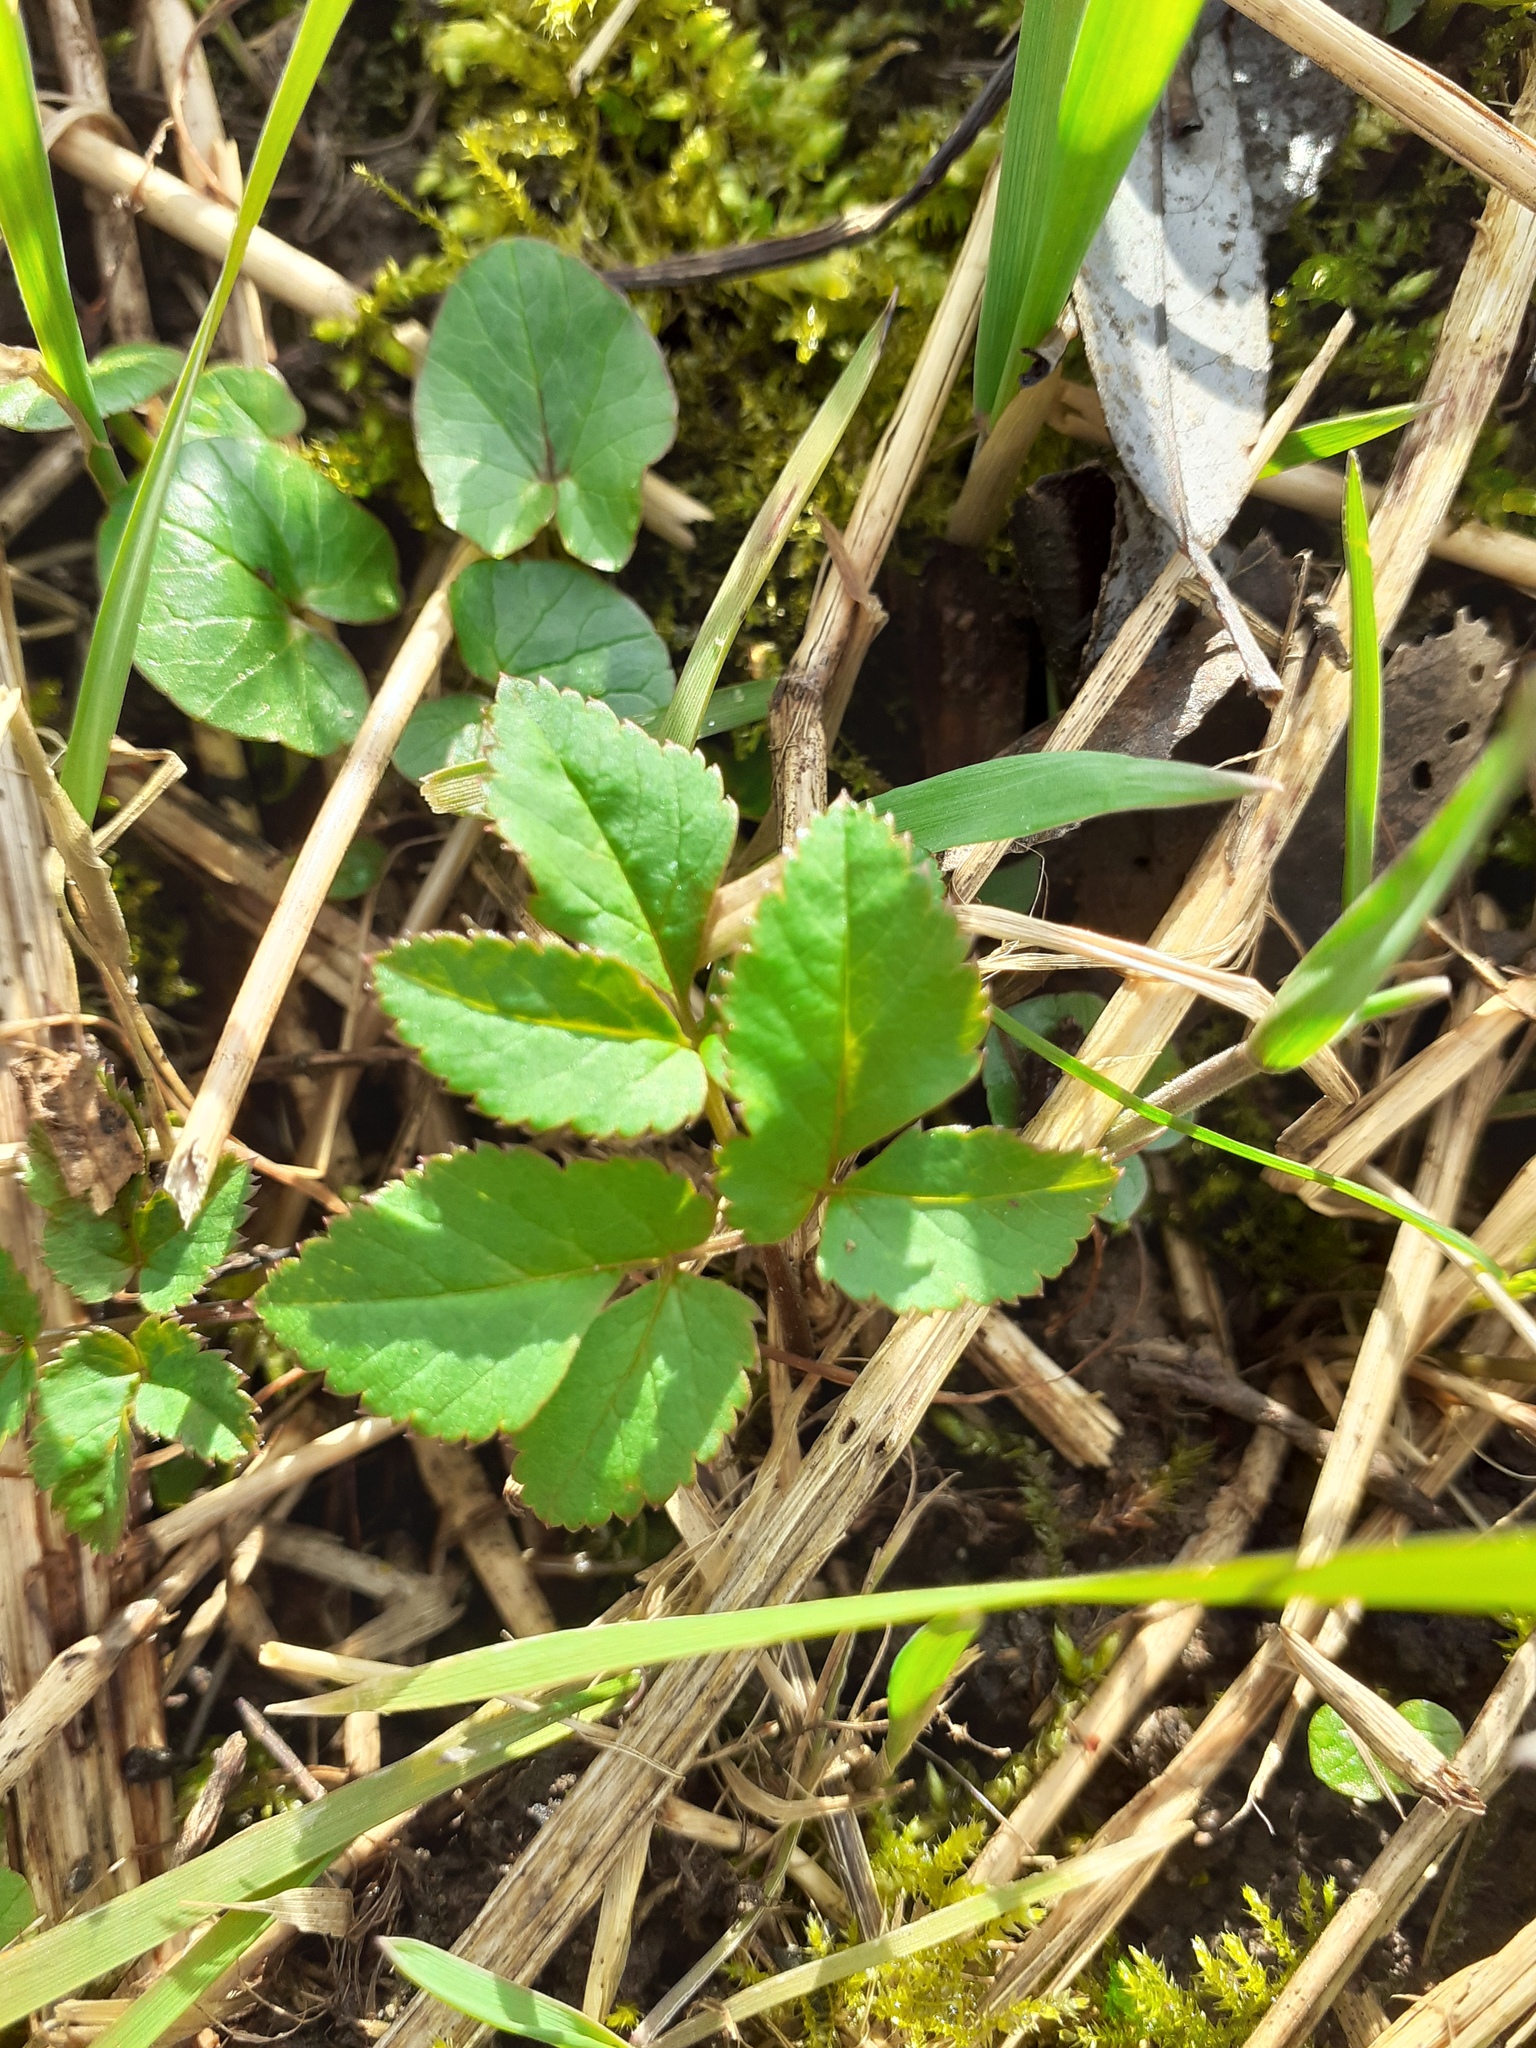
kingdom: Plantae
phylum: Tracheophyta
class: Magnoliopsida
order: Apiales
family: Apiaceae
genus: Aegopodium
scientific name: Aegopodium podagraria
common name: Ground-elder
